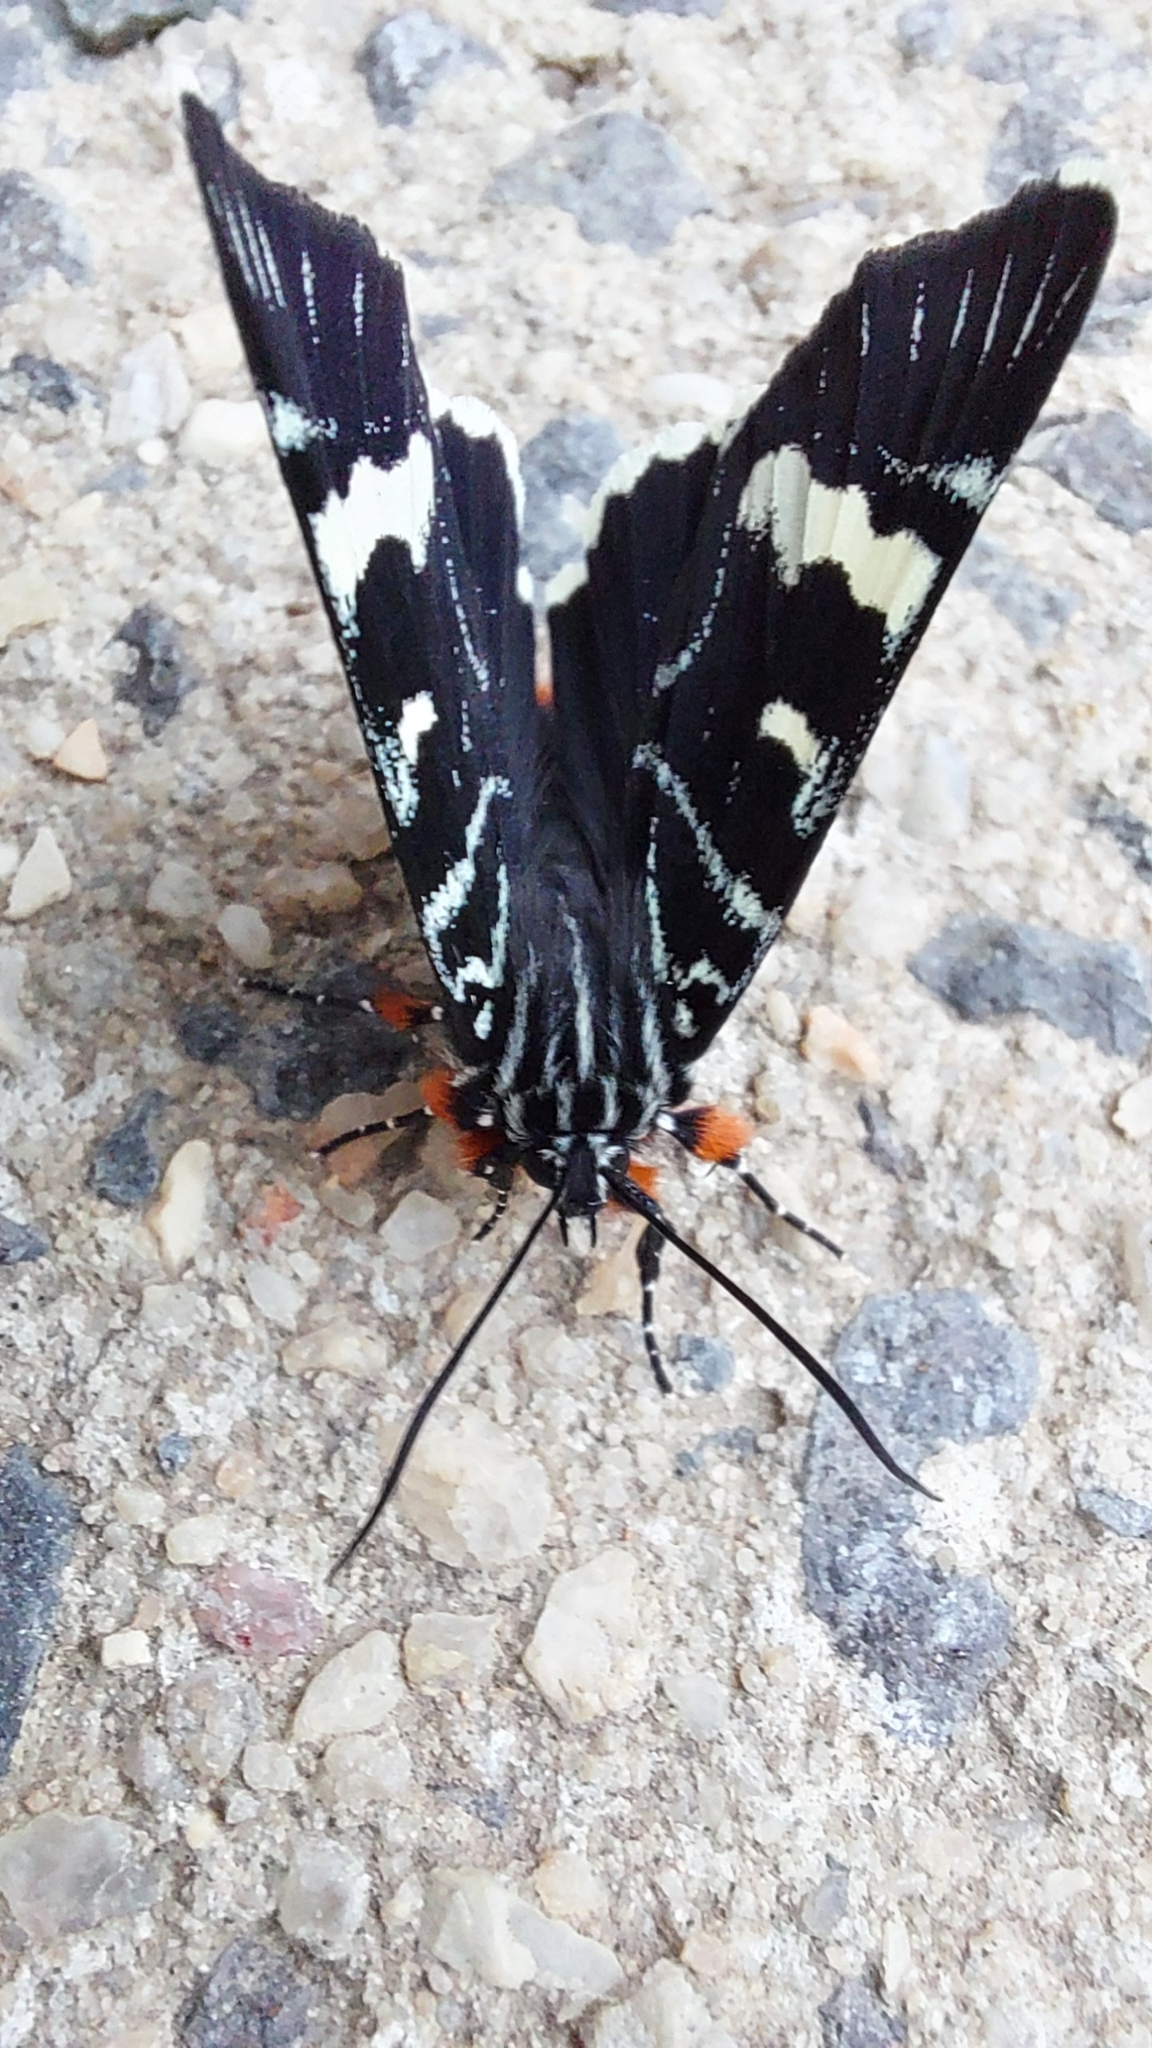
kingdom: Animalia
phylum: Arthropoda
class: Insecta
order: Lepidoptera
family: Noctuidae
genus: Phalaenoides
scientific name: Phalaenoides glycinae
